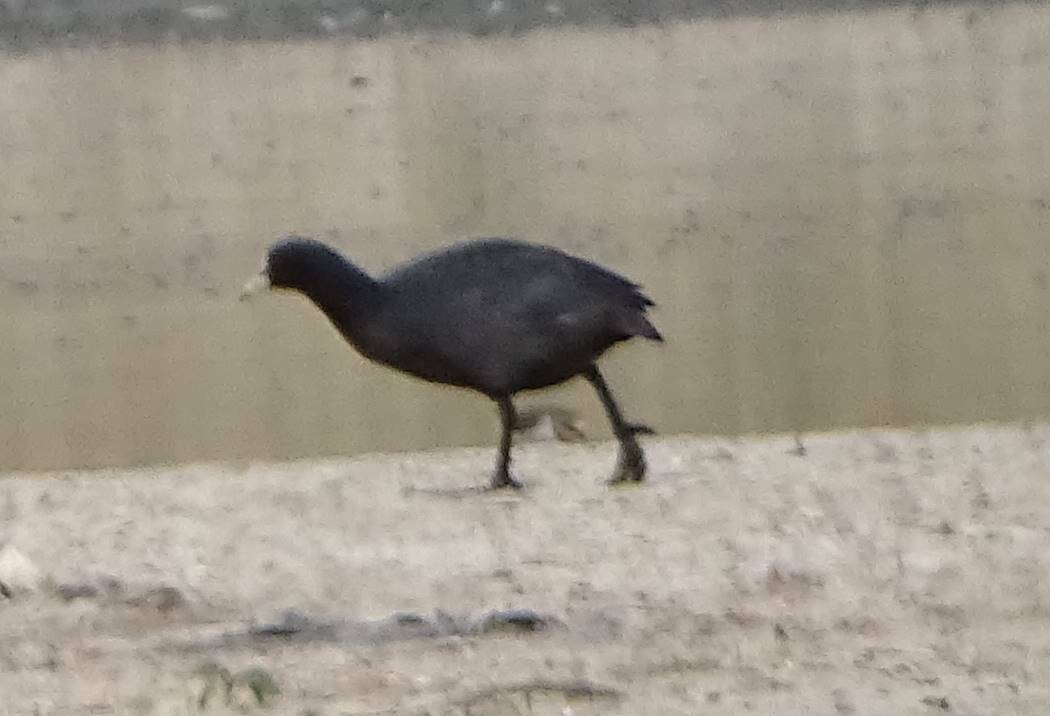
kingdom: Animalia
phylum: Chordata
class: Aves
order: Gruiformes
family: Rallidae
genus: Fulica
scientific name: Fulica atra
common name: Eurasian coot
